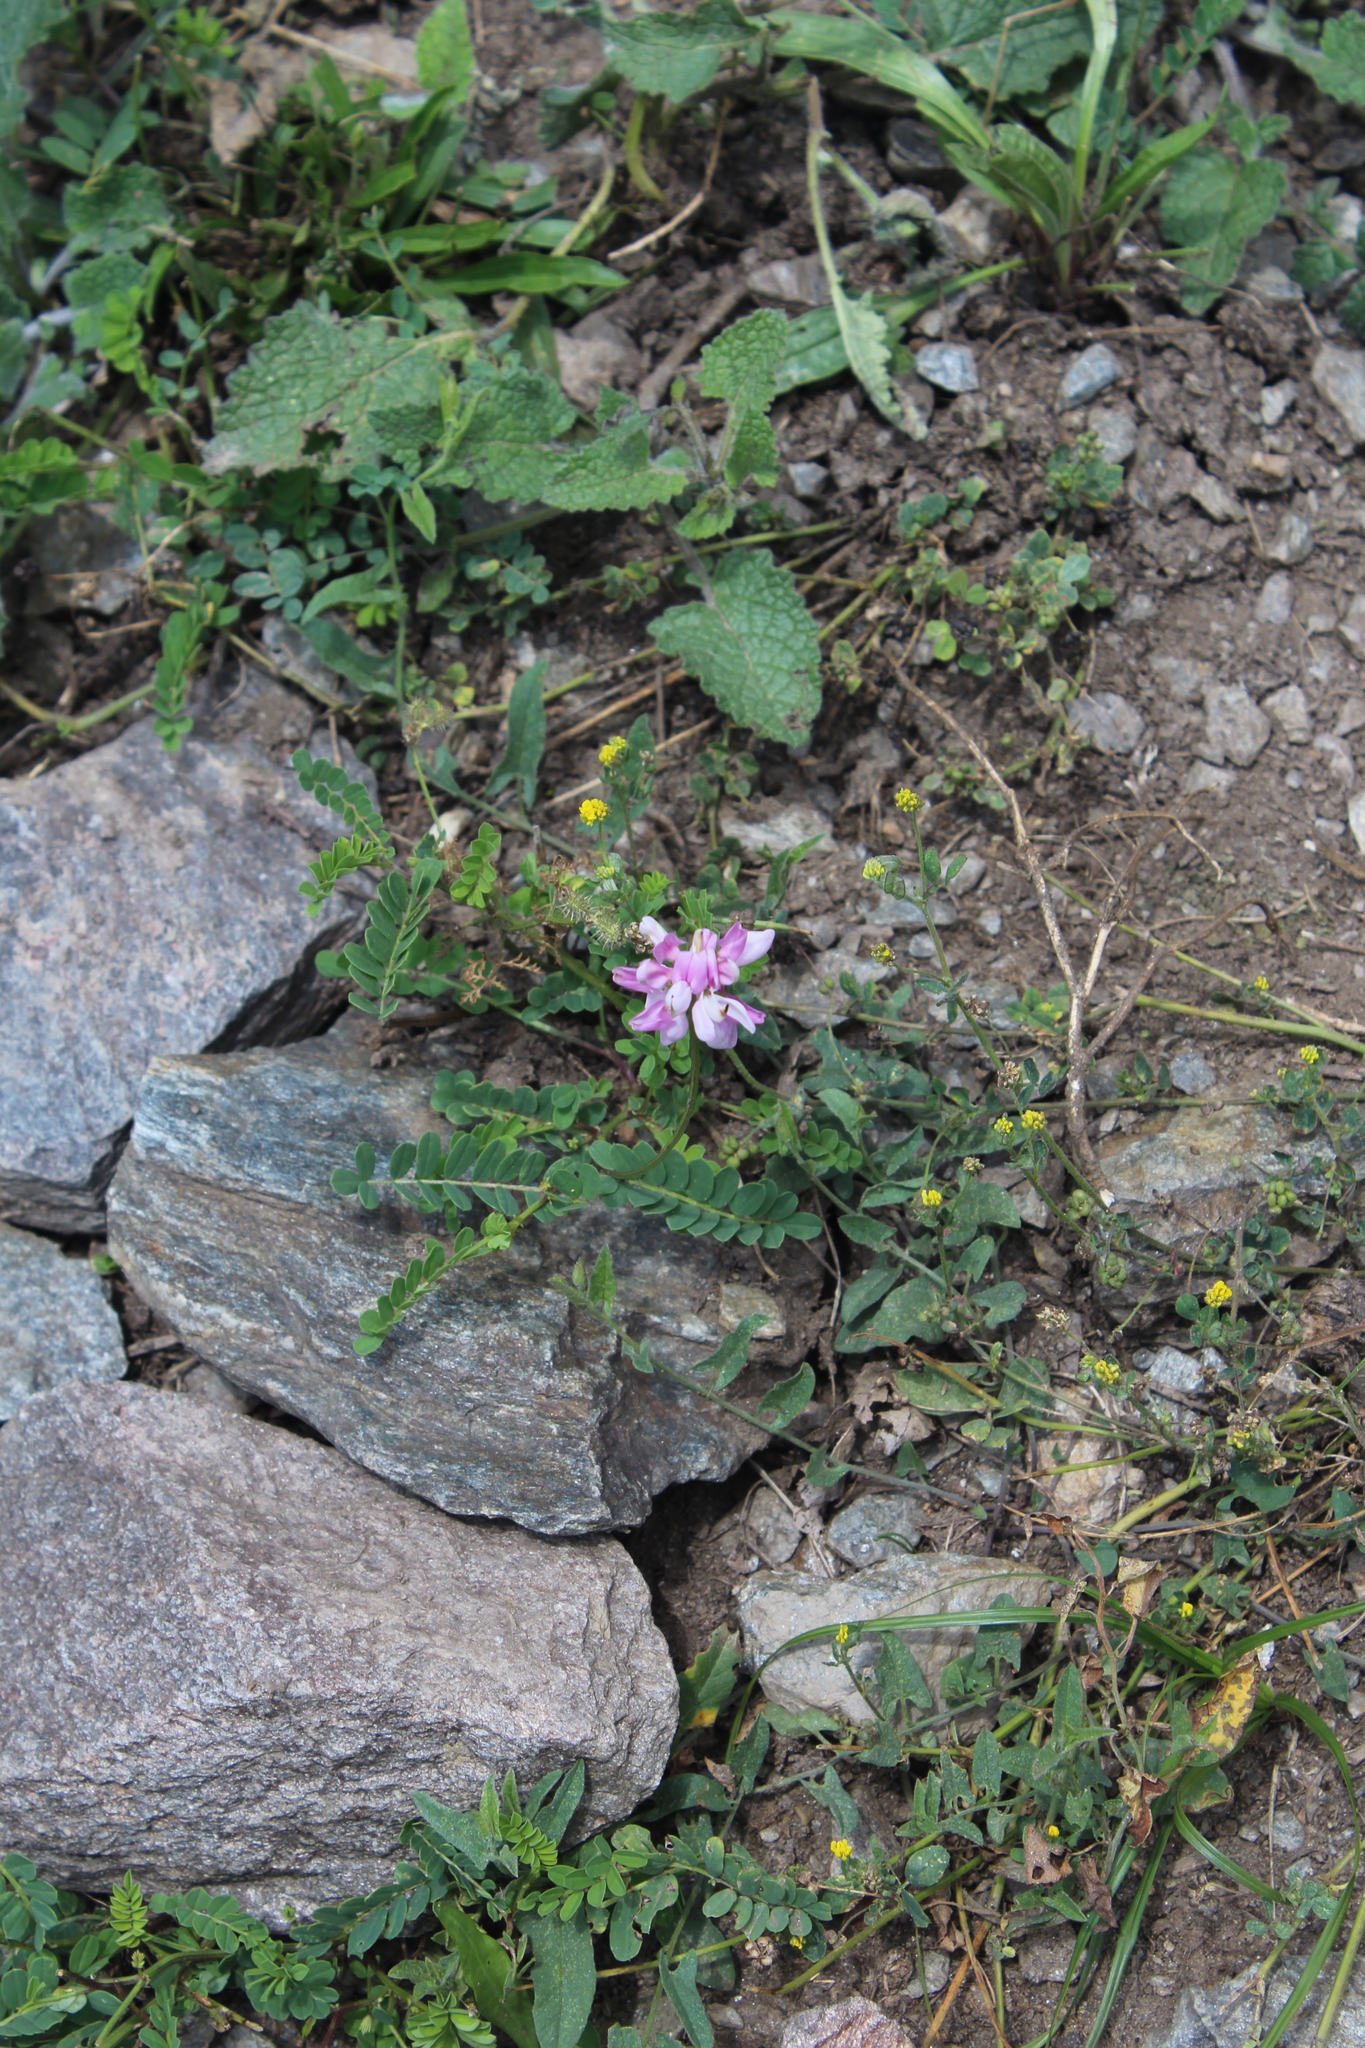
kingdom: Plantae
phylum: Tracheophyta
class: Magnoliopsida
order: Fabales
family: Fabaceae
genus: Coronilla
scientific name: Coronilla varia
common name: Crownvetch
